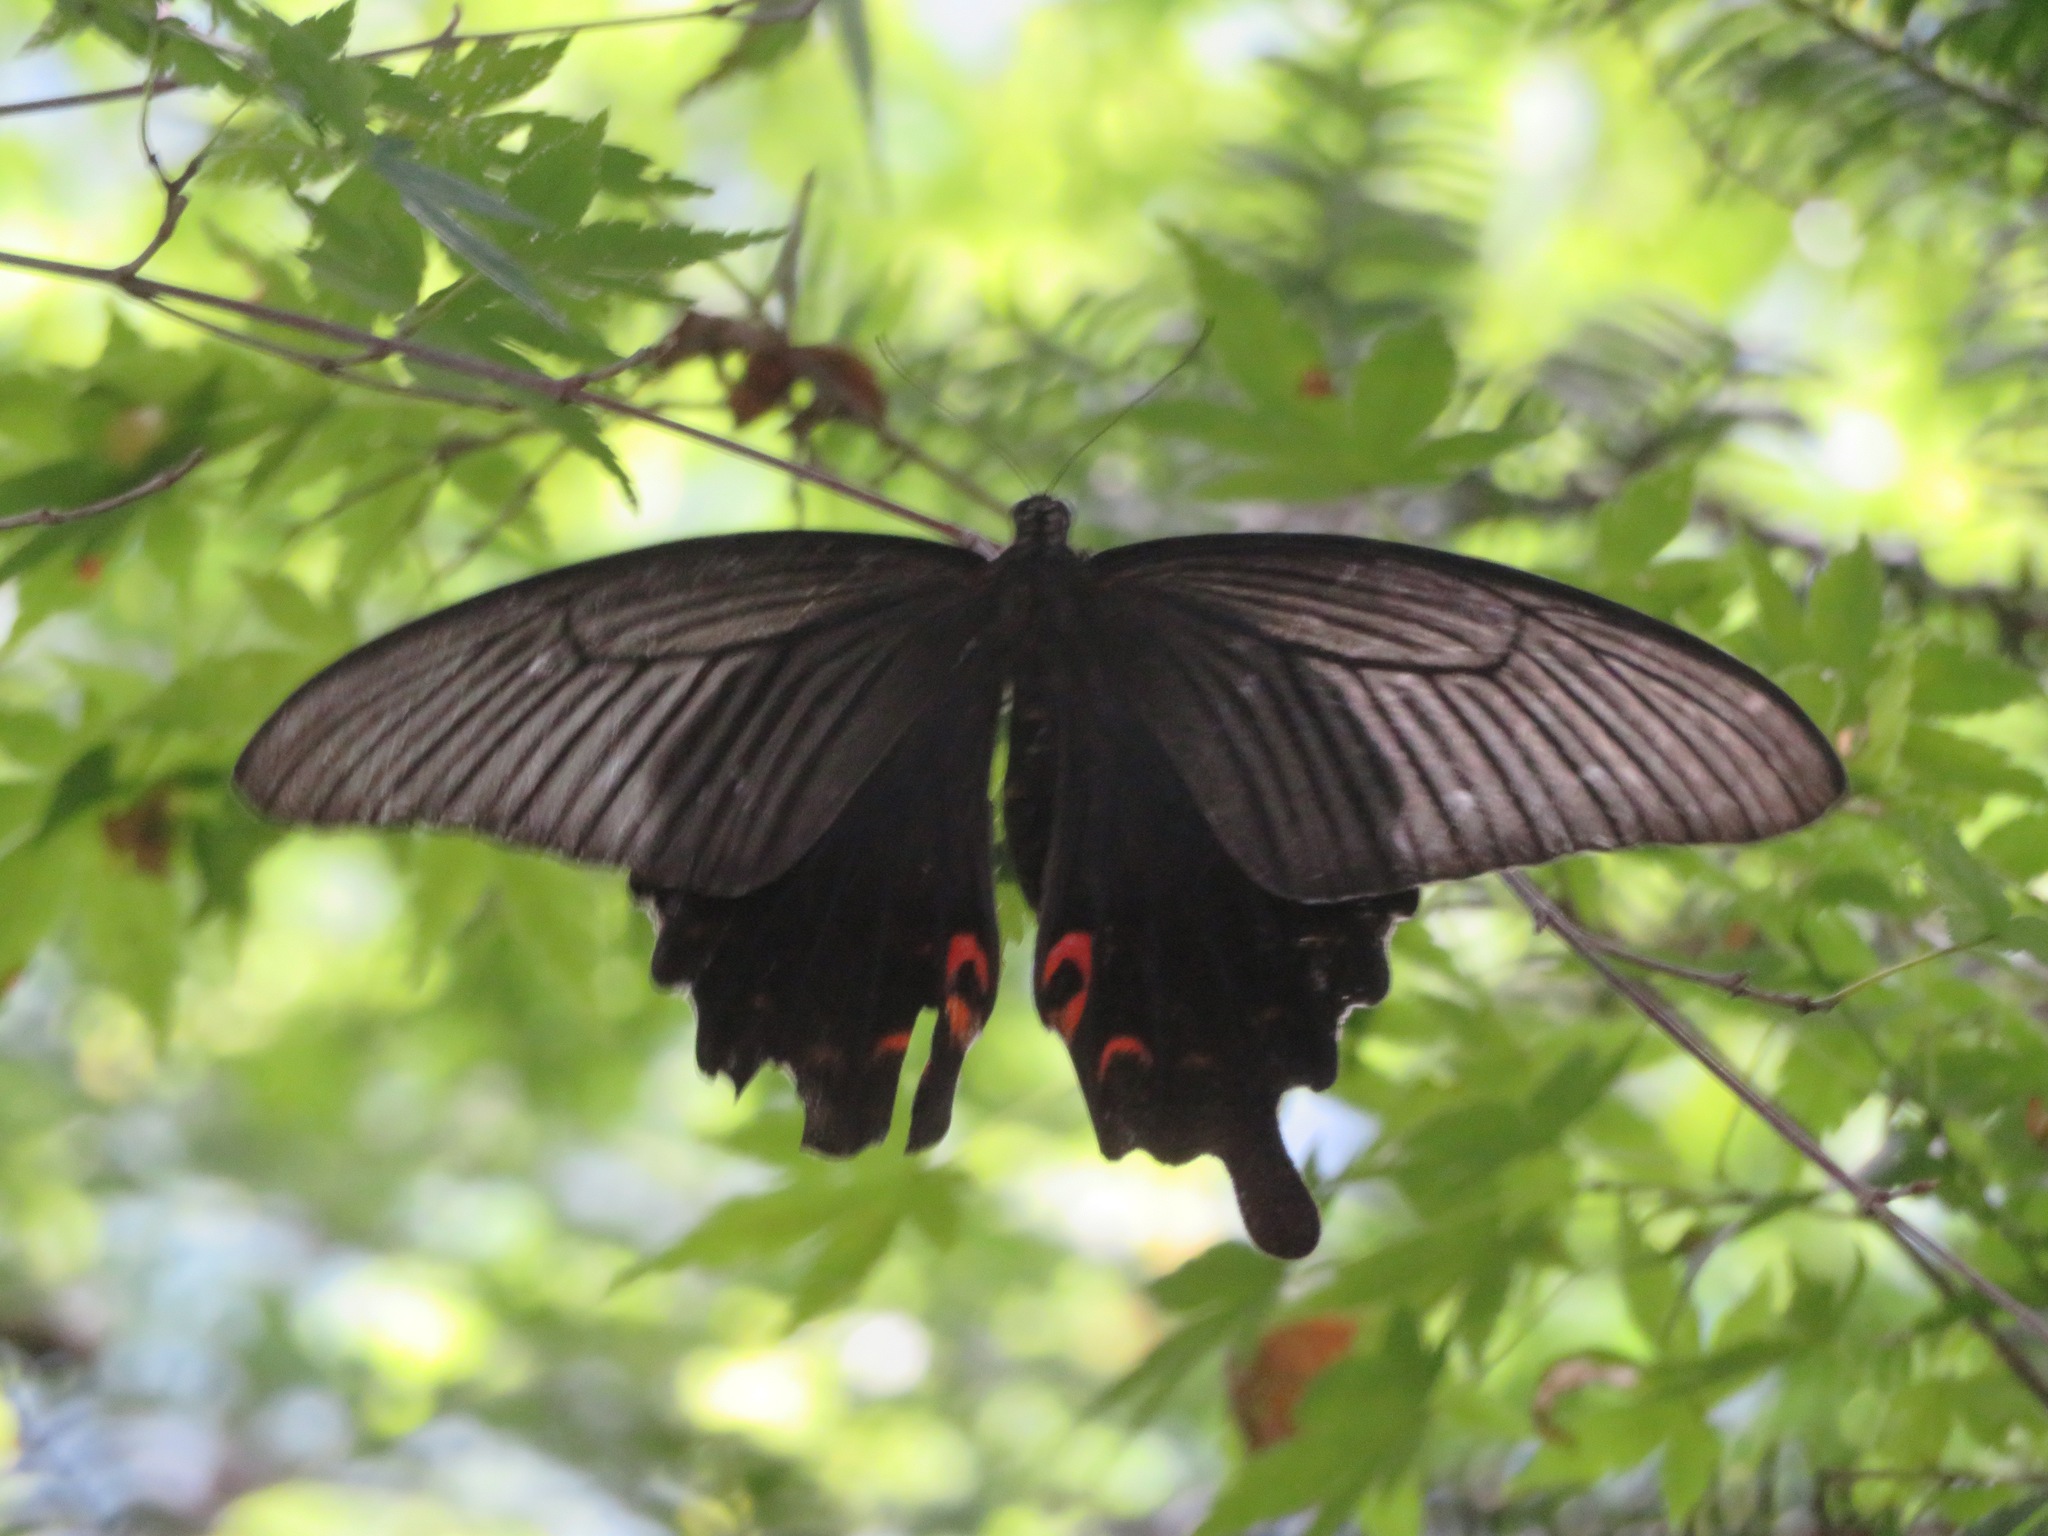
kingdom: Animalia
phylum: Arthropoda
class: Insecta
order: Lepidoptera
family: Papilionidae
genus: Papilio
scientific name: Papilio demetrius
